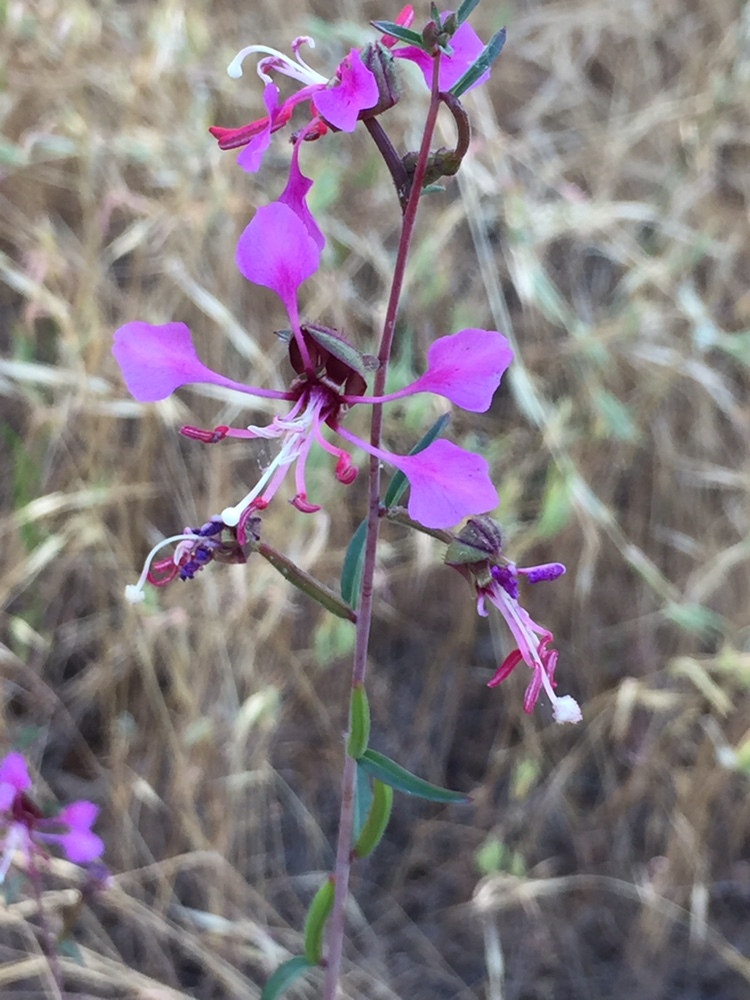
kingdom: Plantae
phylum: Tracheophyta
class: Magnoliopsida
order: Myrtales
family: Onagraceae
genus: Clarkia
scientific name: Clarkia unguiculata
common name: Clarkia
